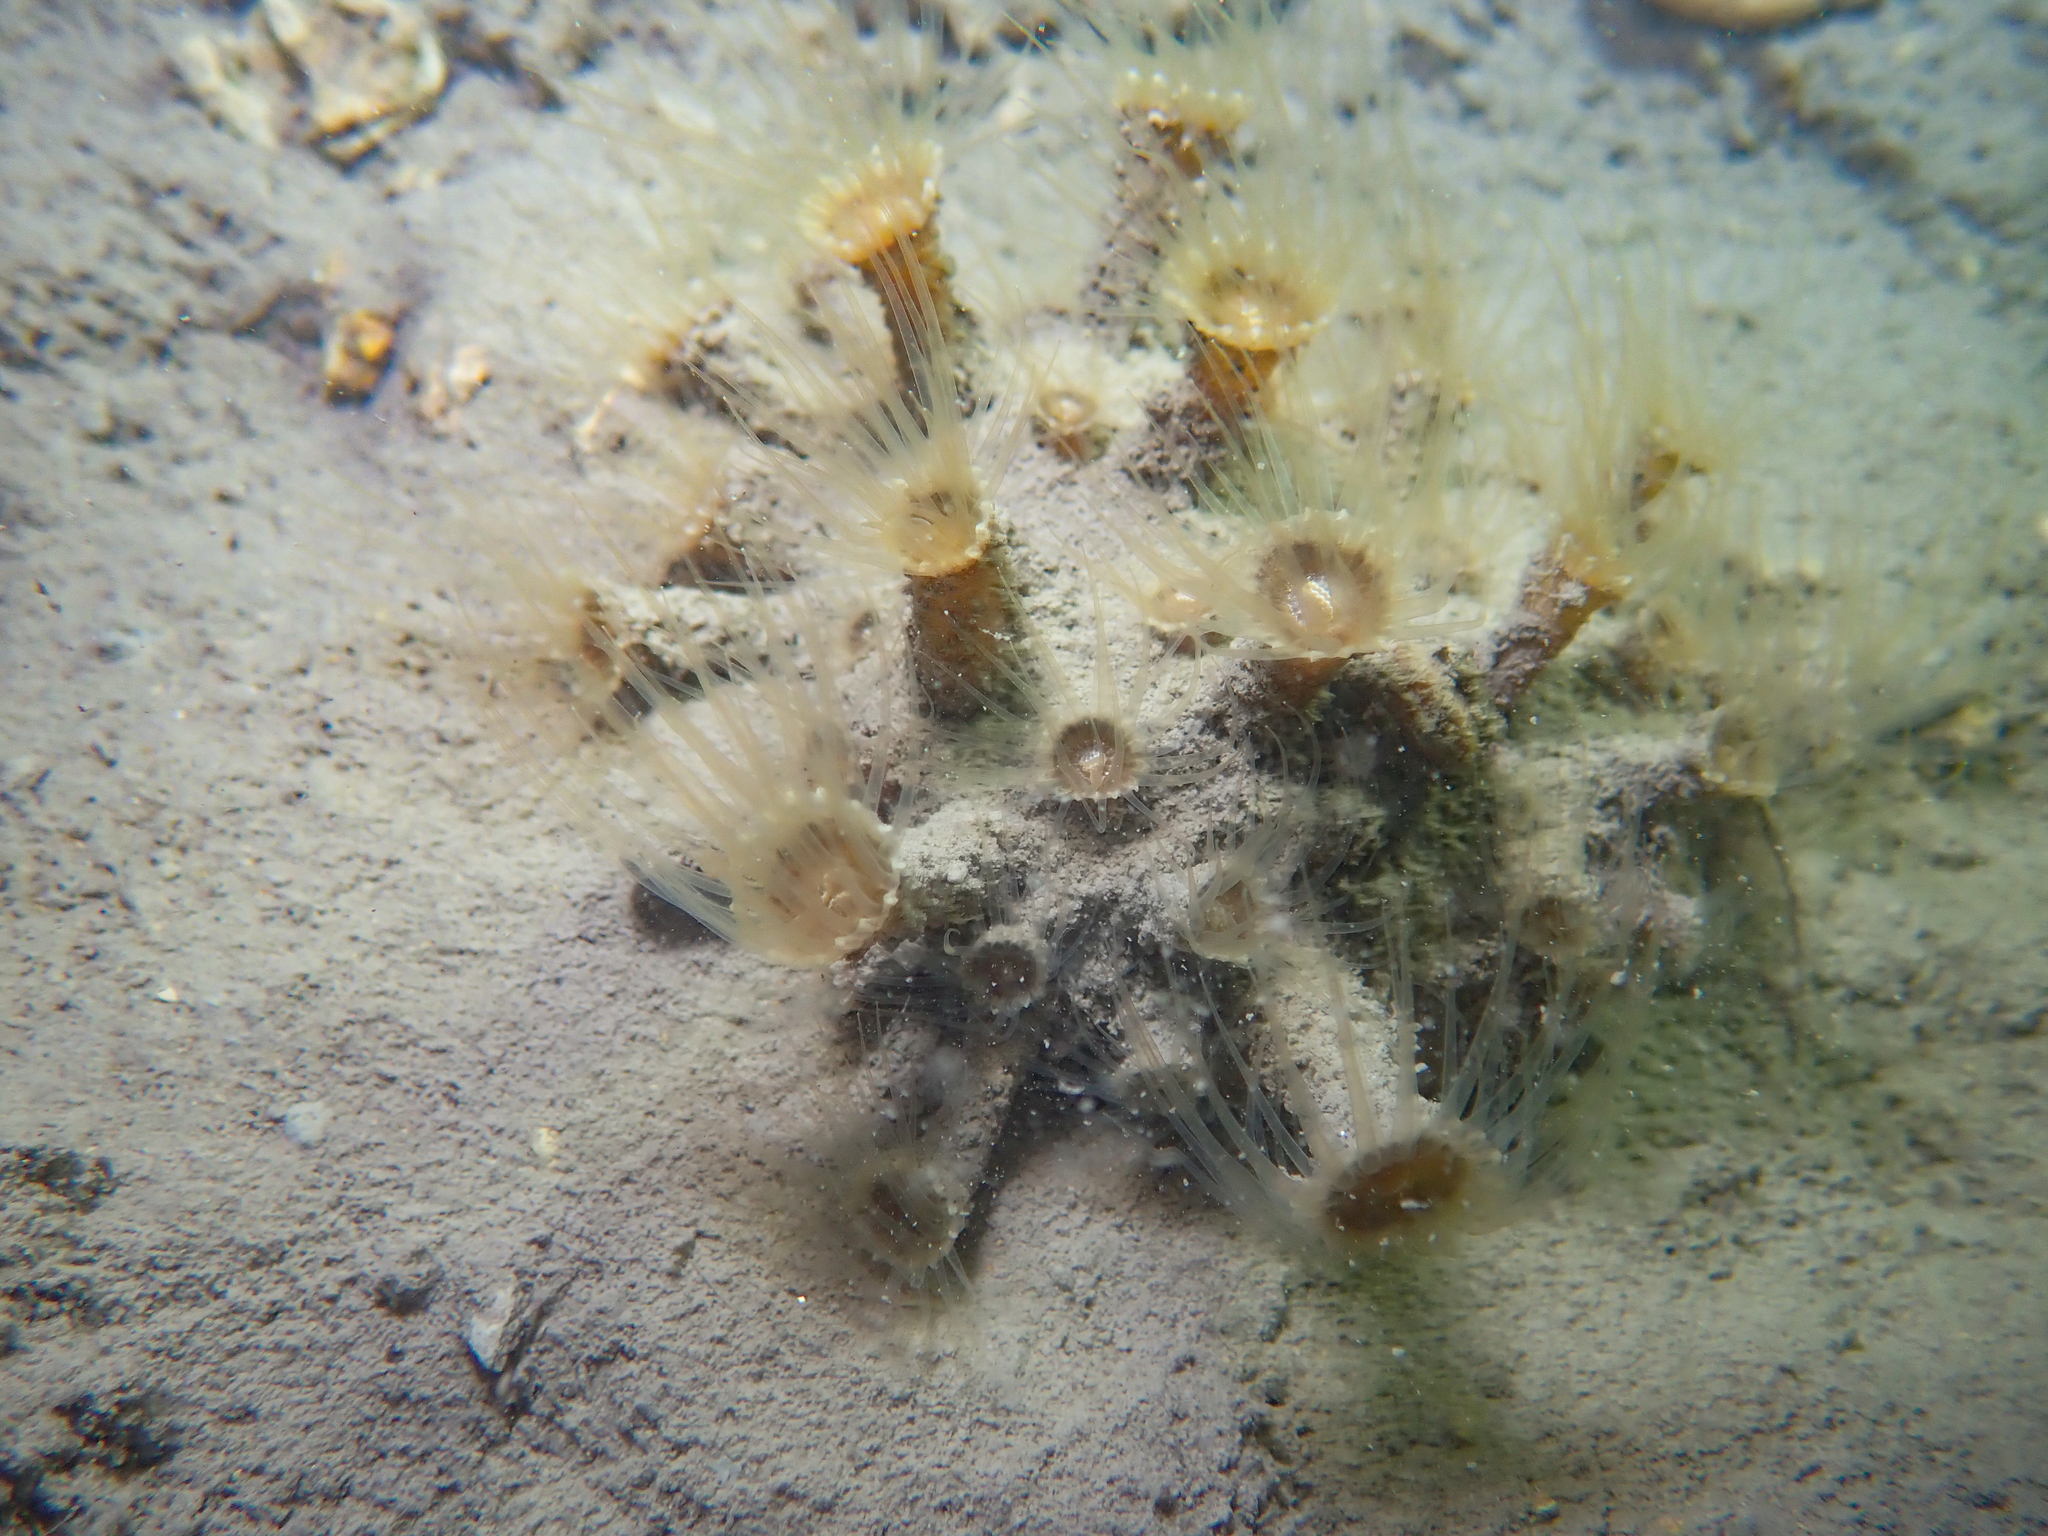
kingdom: Animalia
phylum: Cnidaria
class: Anthozoa
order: Zoantharia
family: Epizoanthidae
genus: Epizoanthus
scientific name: Epizoanthus arenaceus
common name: Gray encrusting anemone
